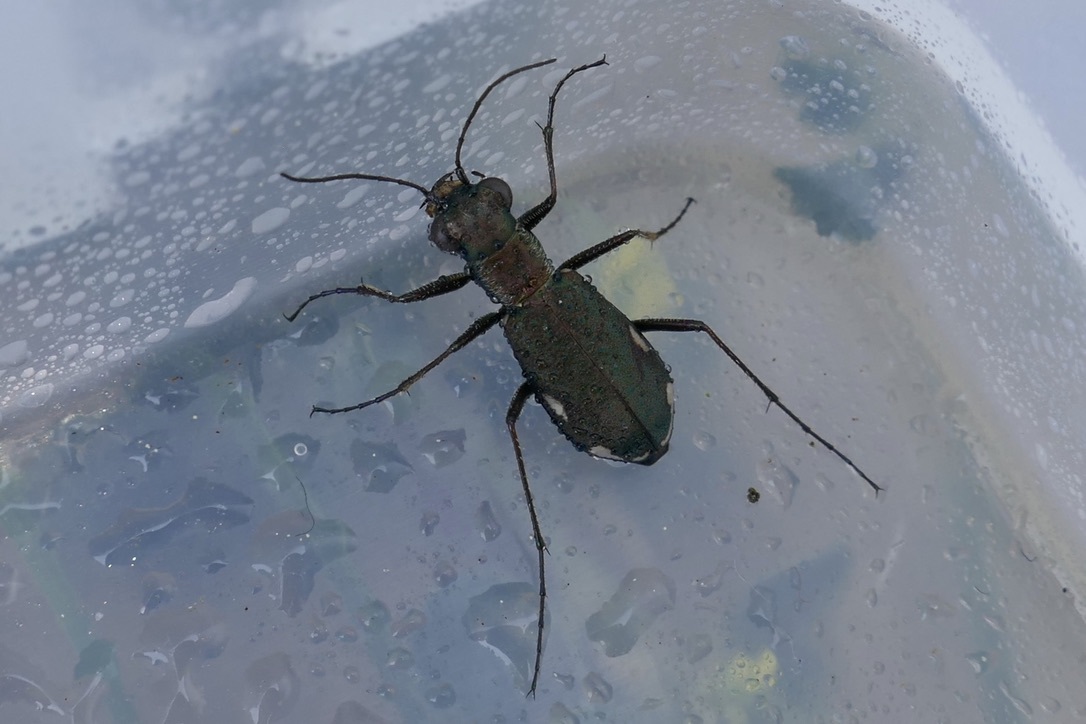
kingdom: Animalia
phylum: Arthropoda
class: Insecta
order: Coleoptera
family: Carabidae
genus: Cylindera
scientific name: Cylindera germanica
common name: Cliff tiger beetle
